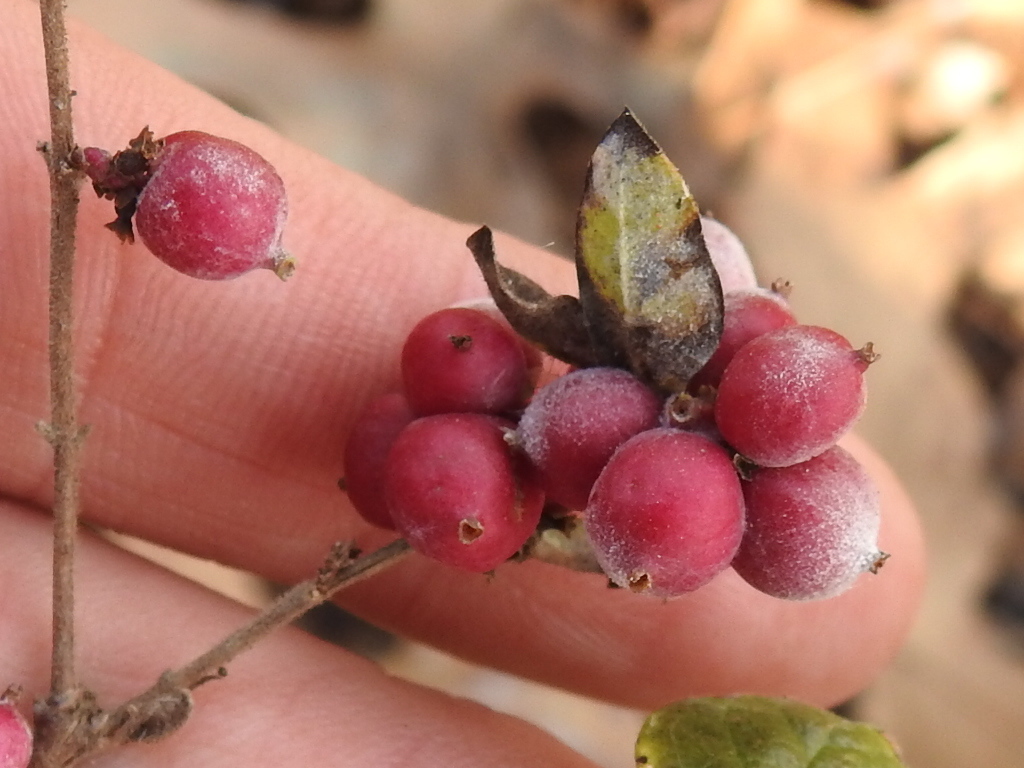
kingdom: Plantae
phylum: Tracheophyta
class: Magnoliopsida
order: Dipsacales
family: Caprifoliaceae
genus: Symphoricarpos
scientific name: Symphoricarpos orbiculatus
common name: Coralberry
